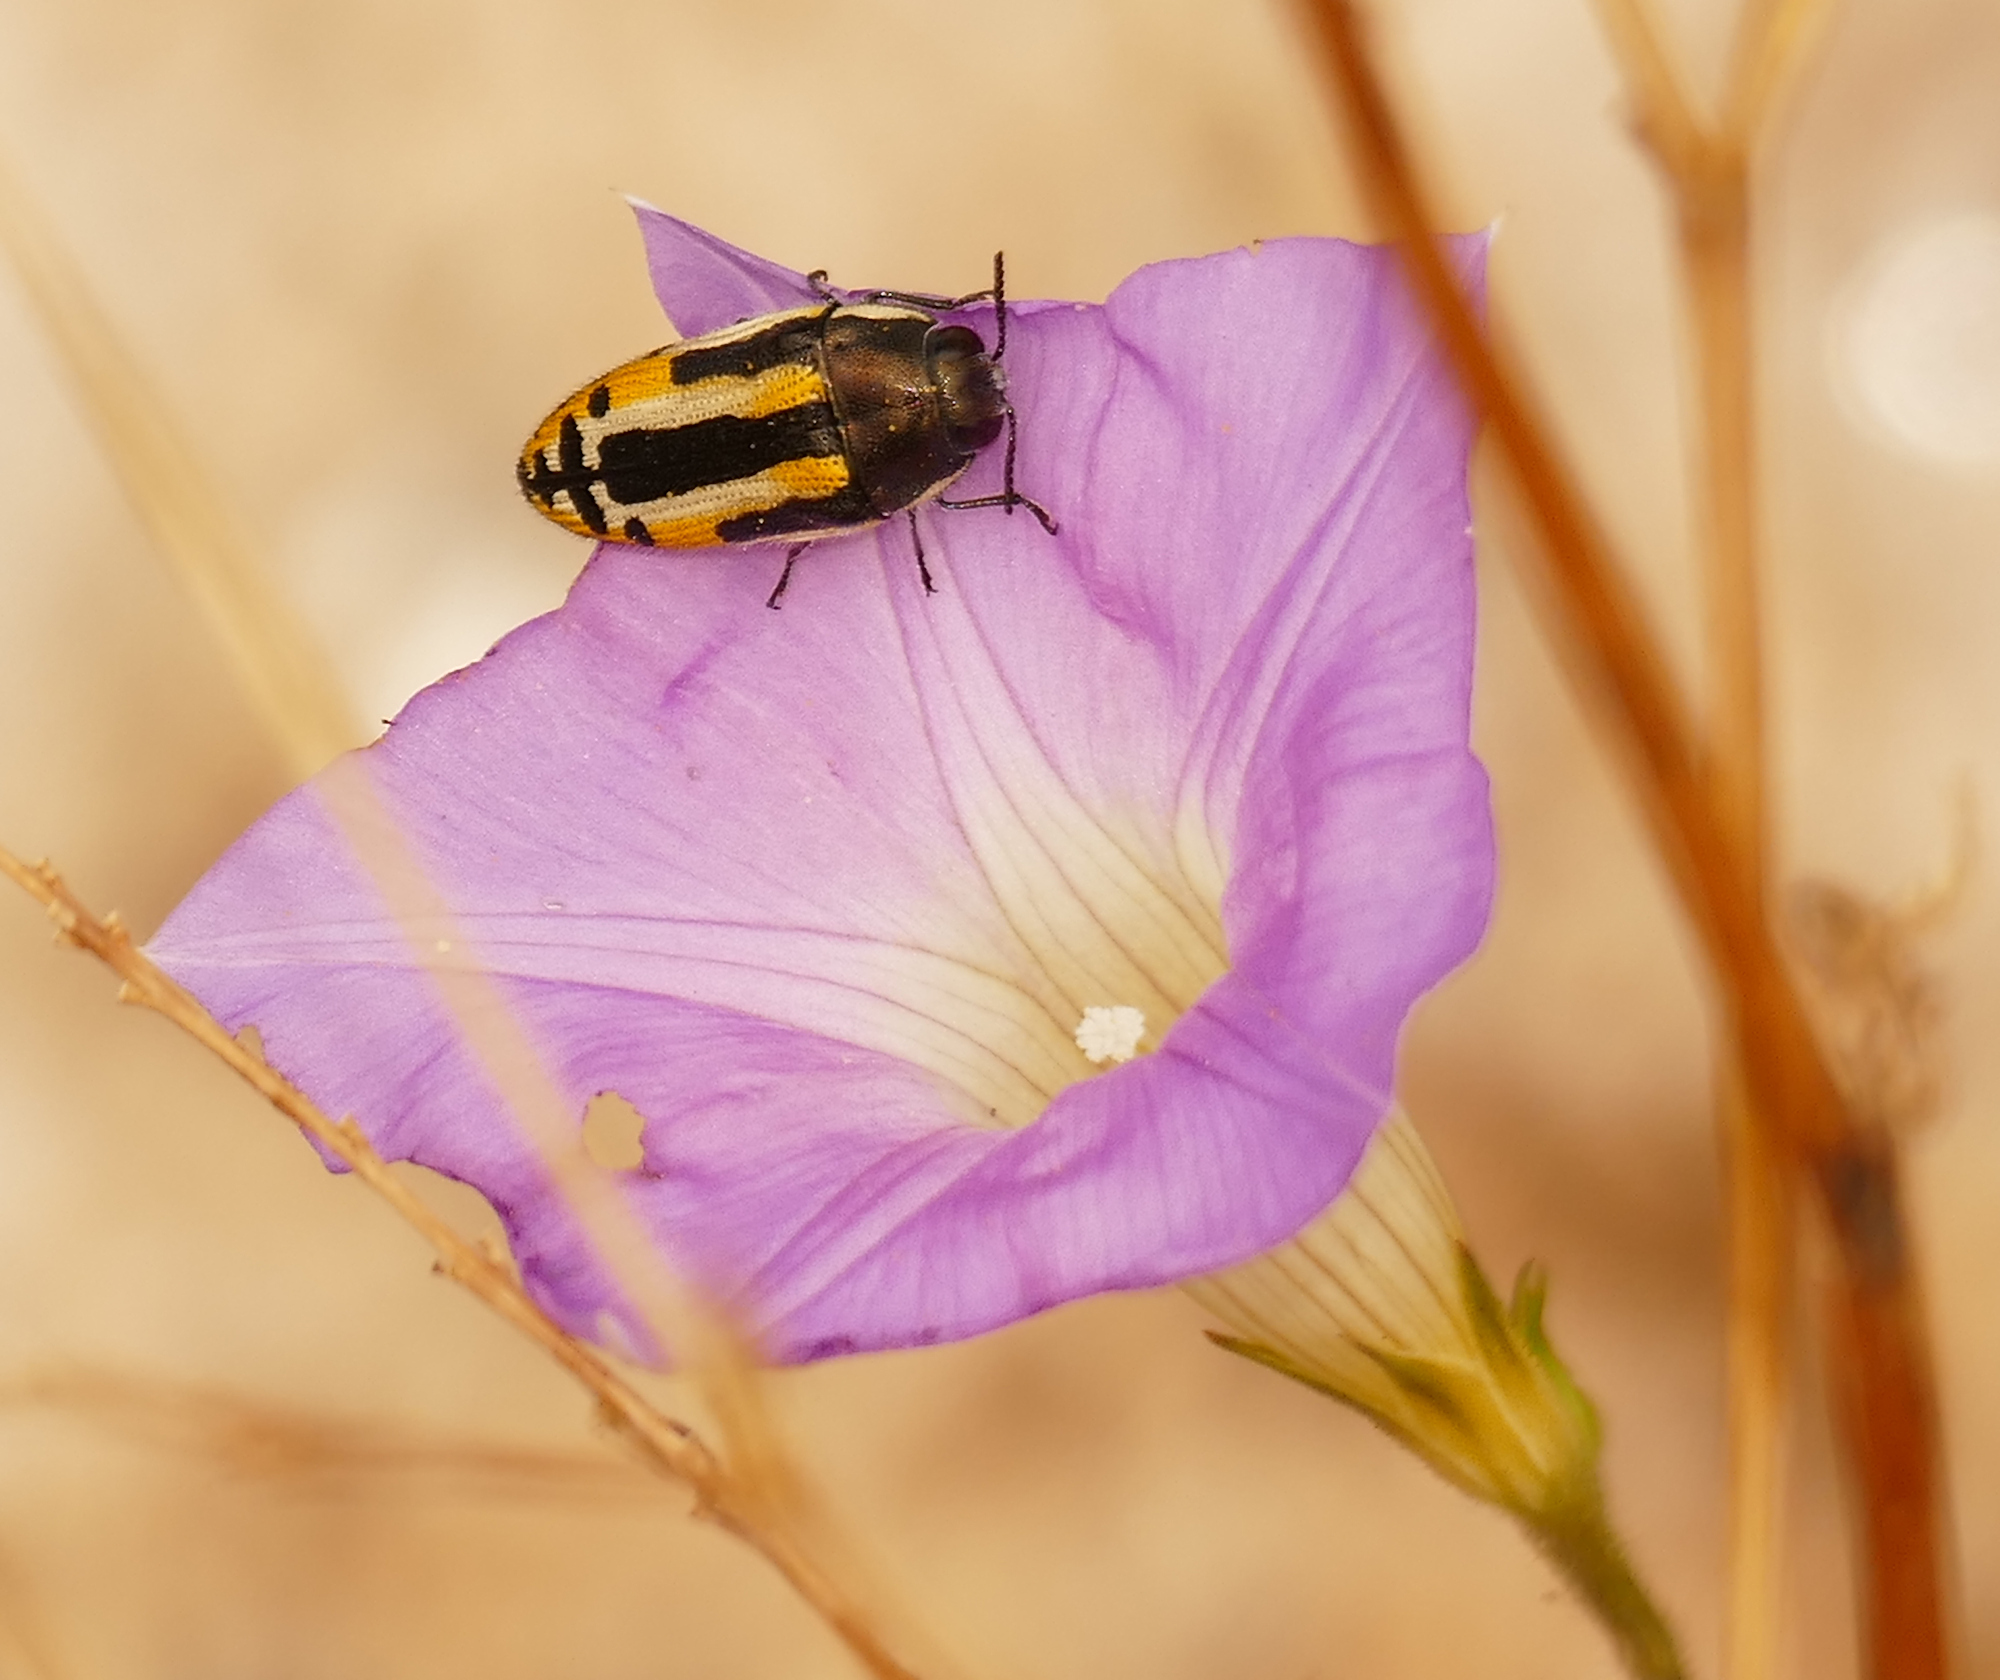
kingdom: Animalia
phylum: Arthropoda
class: Insecta
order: Coleoptera
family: Buprestidae
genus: Acmaeodera
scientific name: Acmaeodera scalaris
